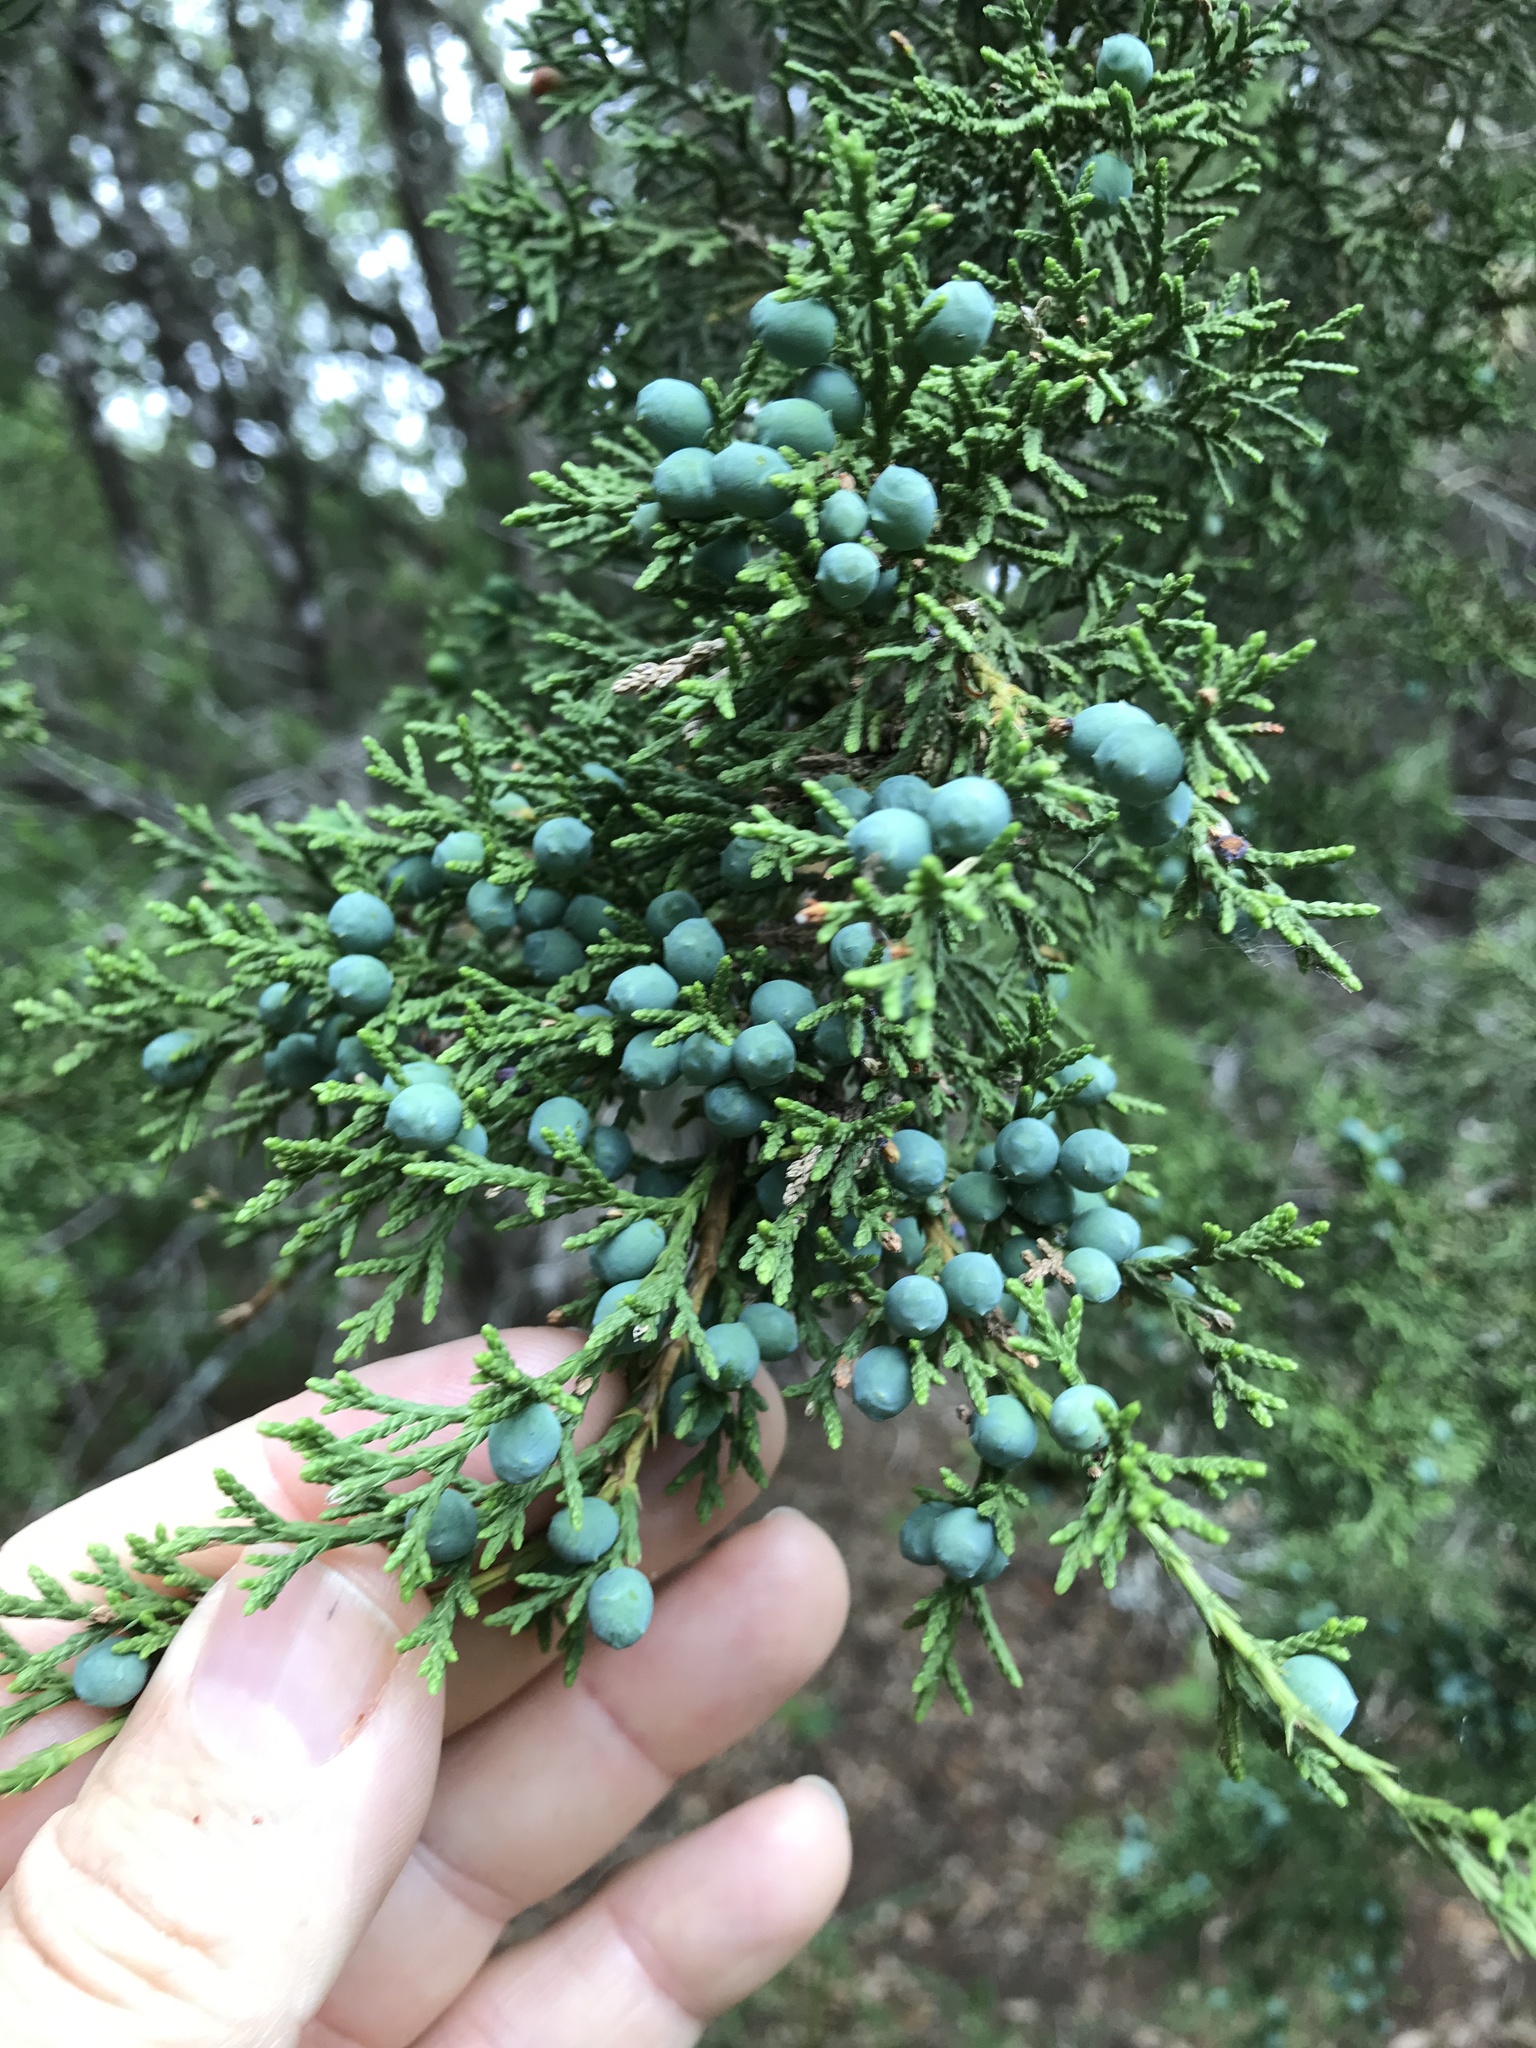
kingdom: Plantae
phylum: Tracheophyta
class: Pinopsida
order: Pinales
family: Cupressaceae
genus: Juniperus
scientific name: Juniperus ashei
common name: Mexican juniper
